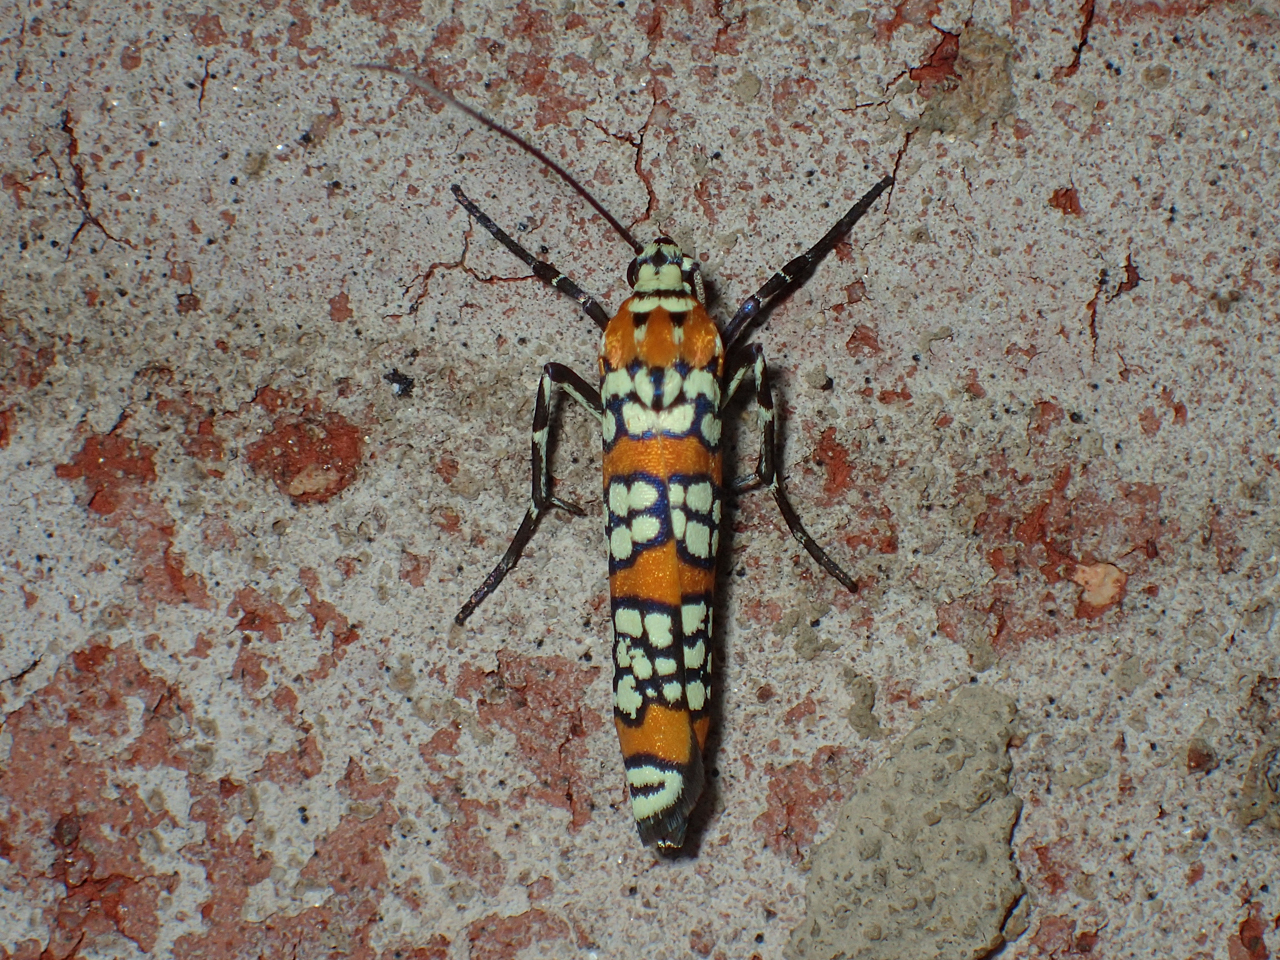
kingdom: Animalia
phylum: Arthropoda
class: Insecta
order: Lepidoptera
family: Attevidae
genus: Atteva
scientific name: Atteva punctella
